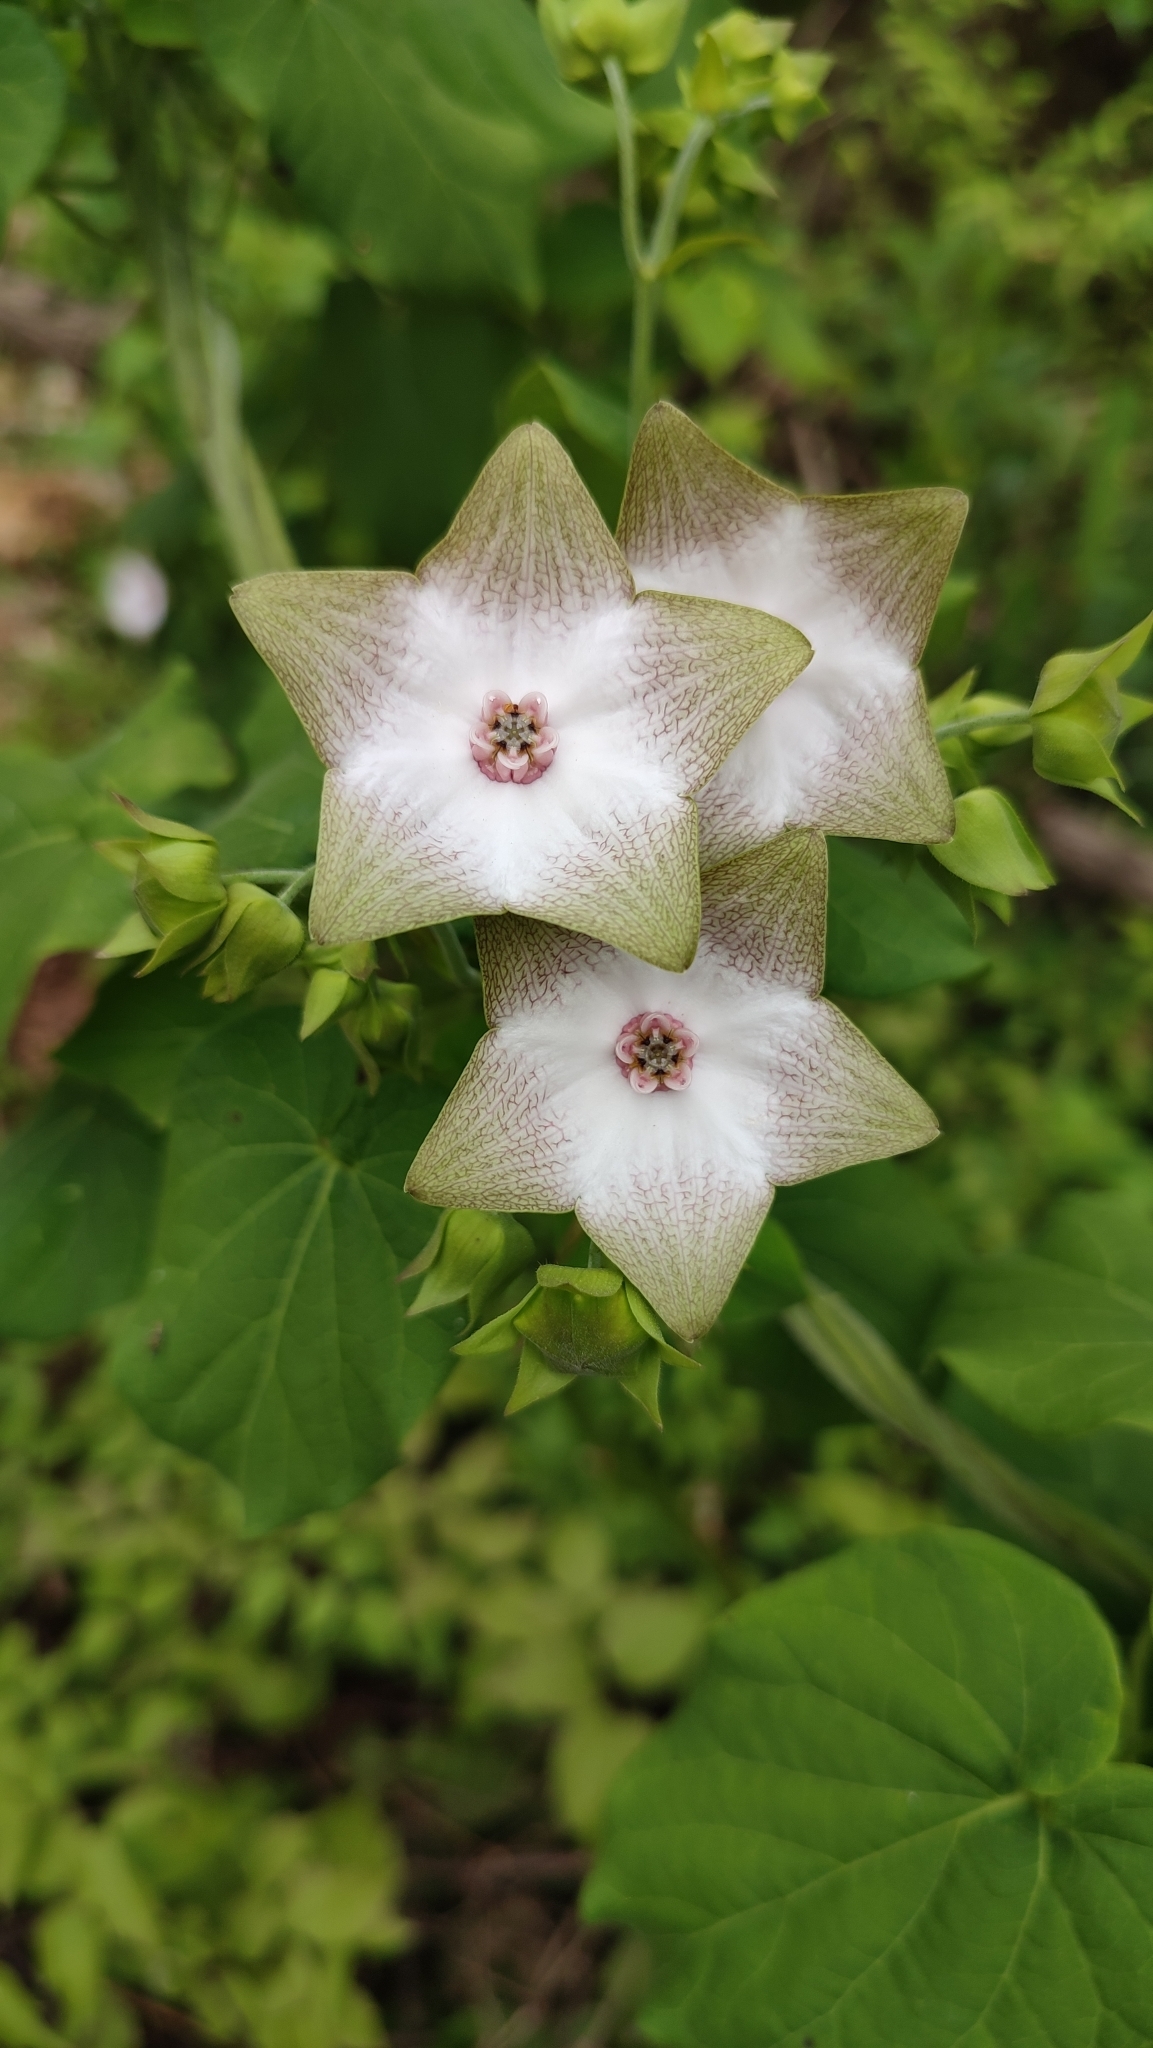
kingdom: Plantae
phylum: Tracheophyta
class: Magnoliopsida
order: Gentianales
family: Apocynaceae
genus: Polystemma
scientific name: Polystemma guatemalense
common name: Arborescente rattan
